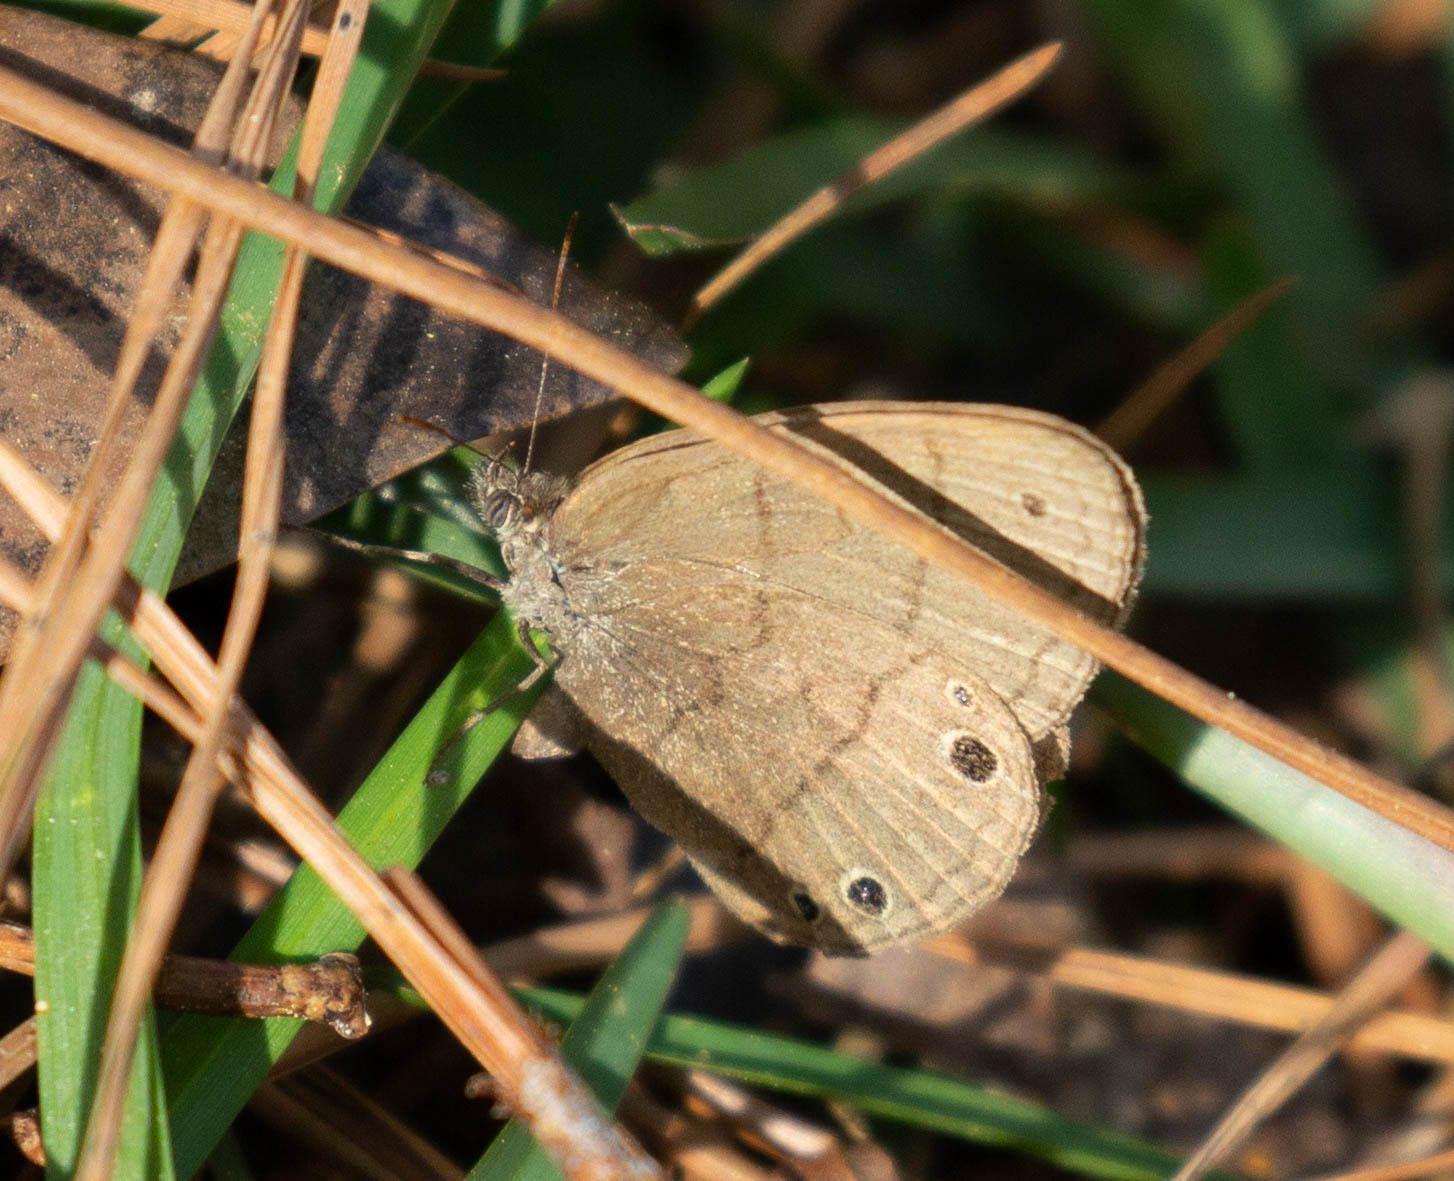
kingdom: Animalia
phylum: Arthropoda
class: Insecta
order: Lepidoptera
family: Nymphalidae
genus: Hermeuptychia
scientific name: Hermeuptychia hermes
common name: Hermes satyr
